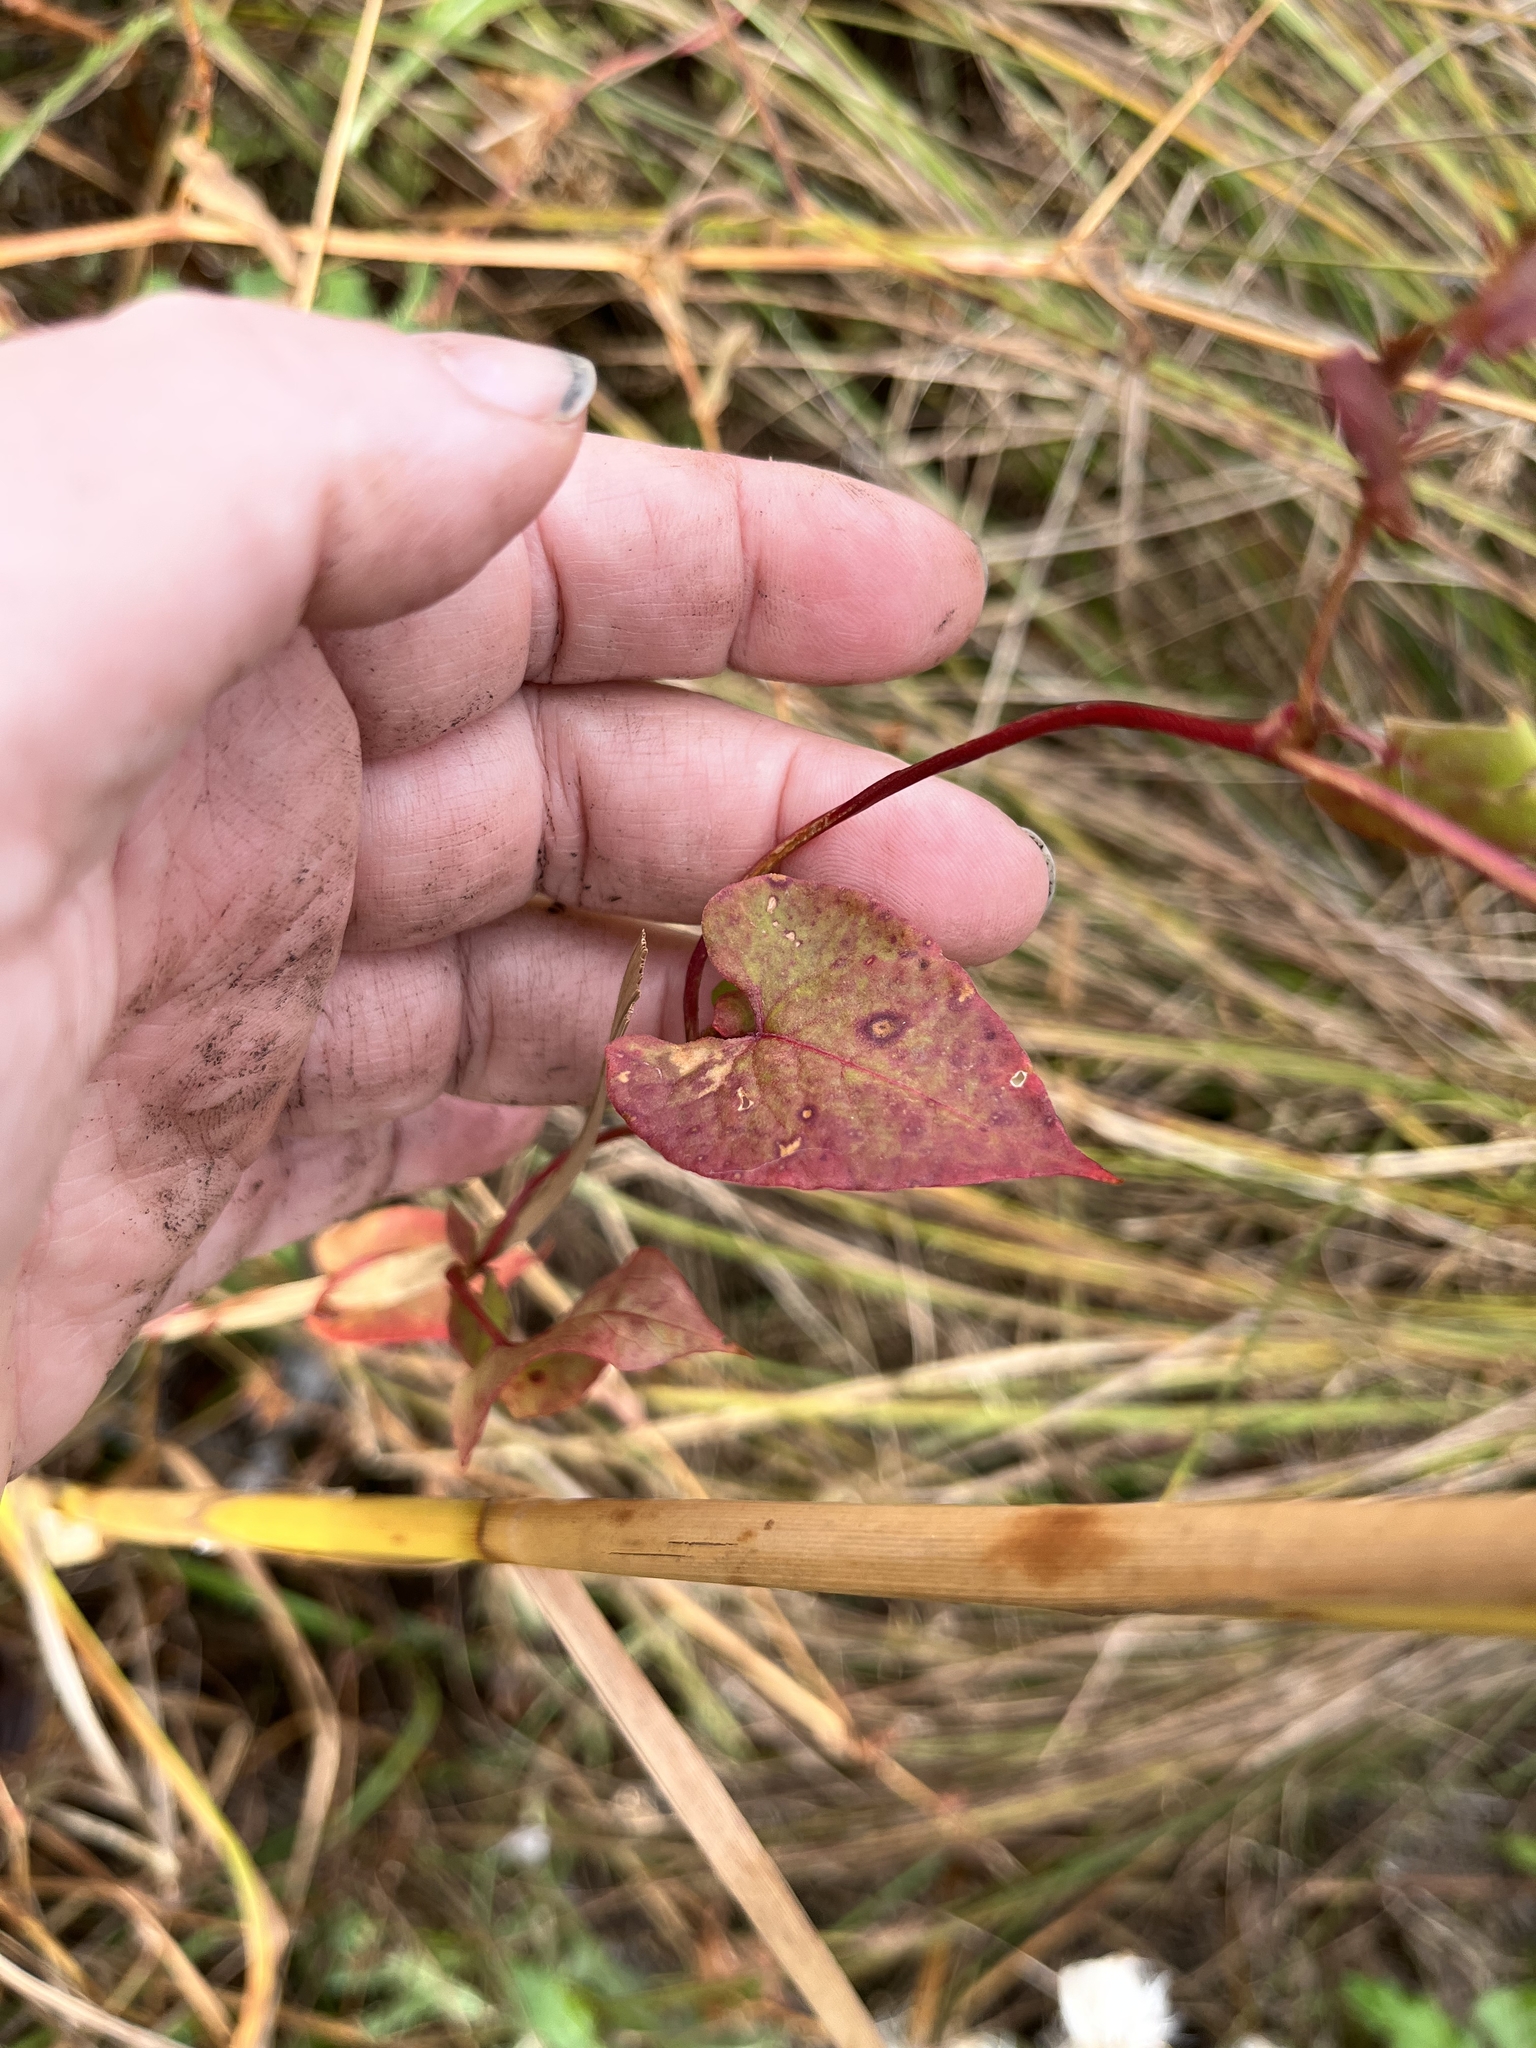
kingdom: Plantae
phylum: Tracheophyta
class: Magnoliopsida
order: Caryophyllales
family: Polygonaceae
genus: Fallopia
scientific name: Fallopia scandens
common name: Climbing false buckwheat
